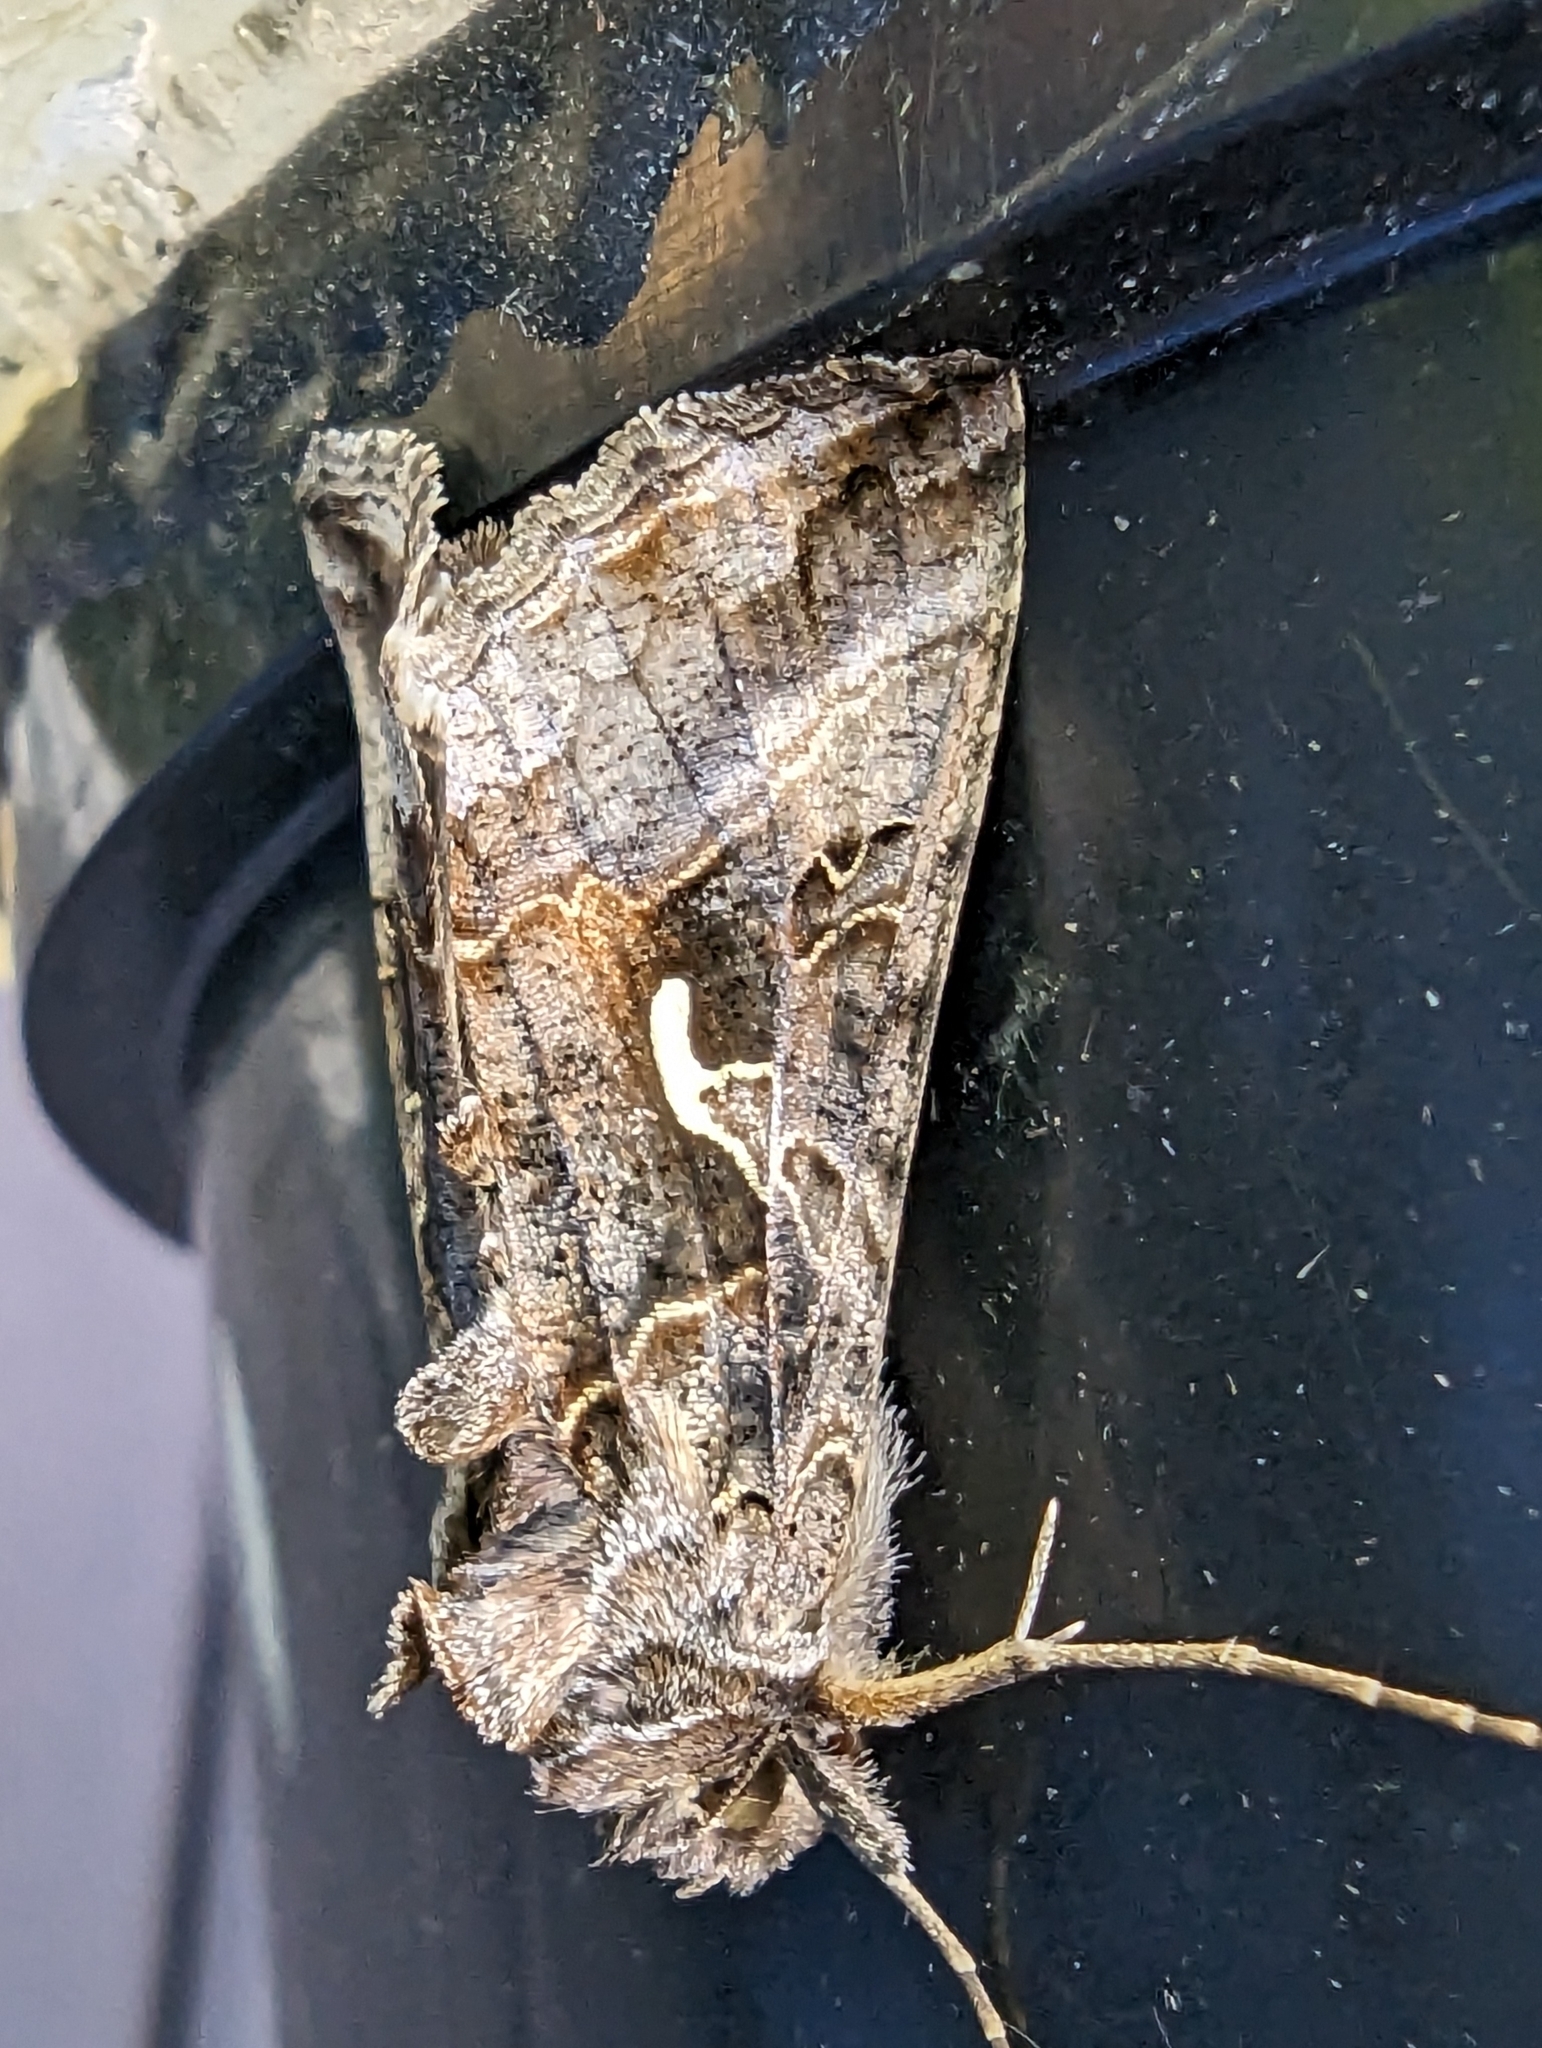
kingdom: Animalia
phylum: Arthropoda
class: Insecta
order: Lepidoptera
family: Noctuidae
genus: Autographa
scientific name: Autographa gamma
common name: Silver y
